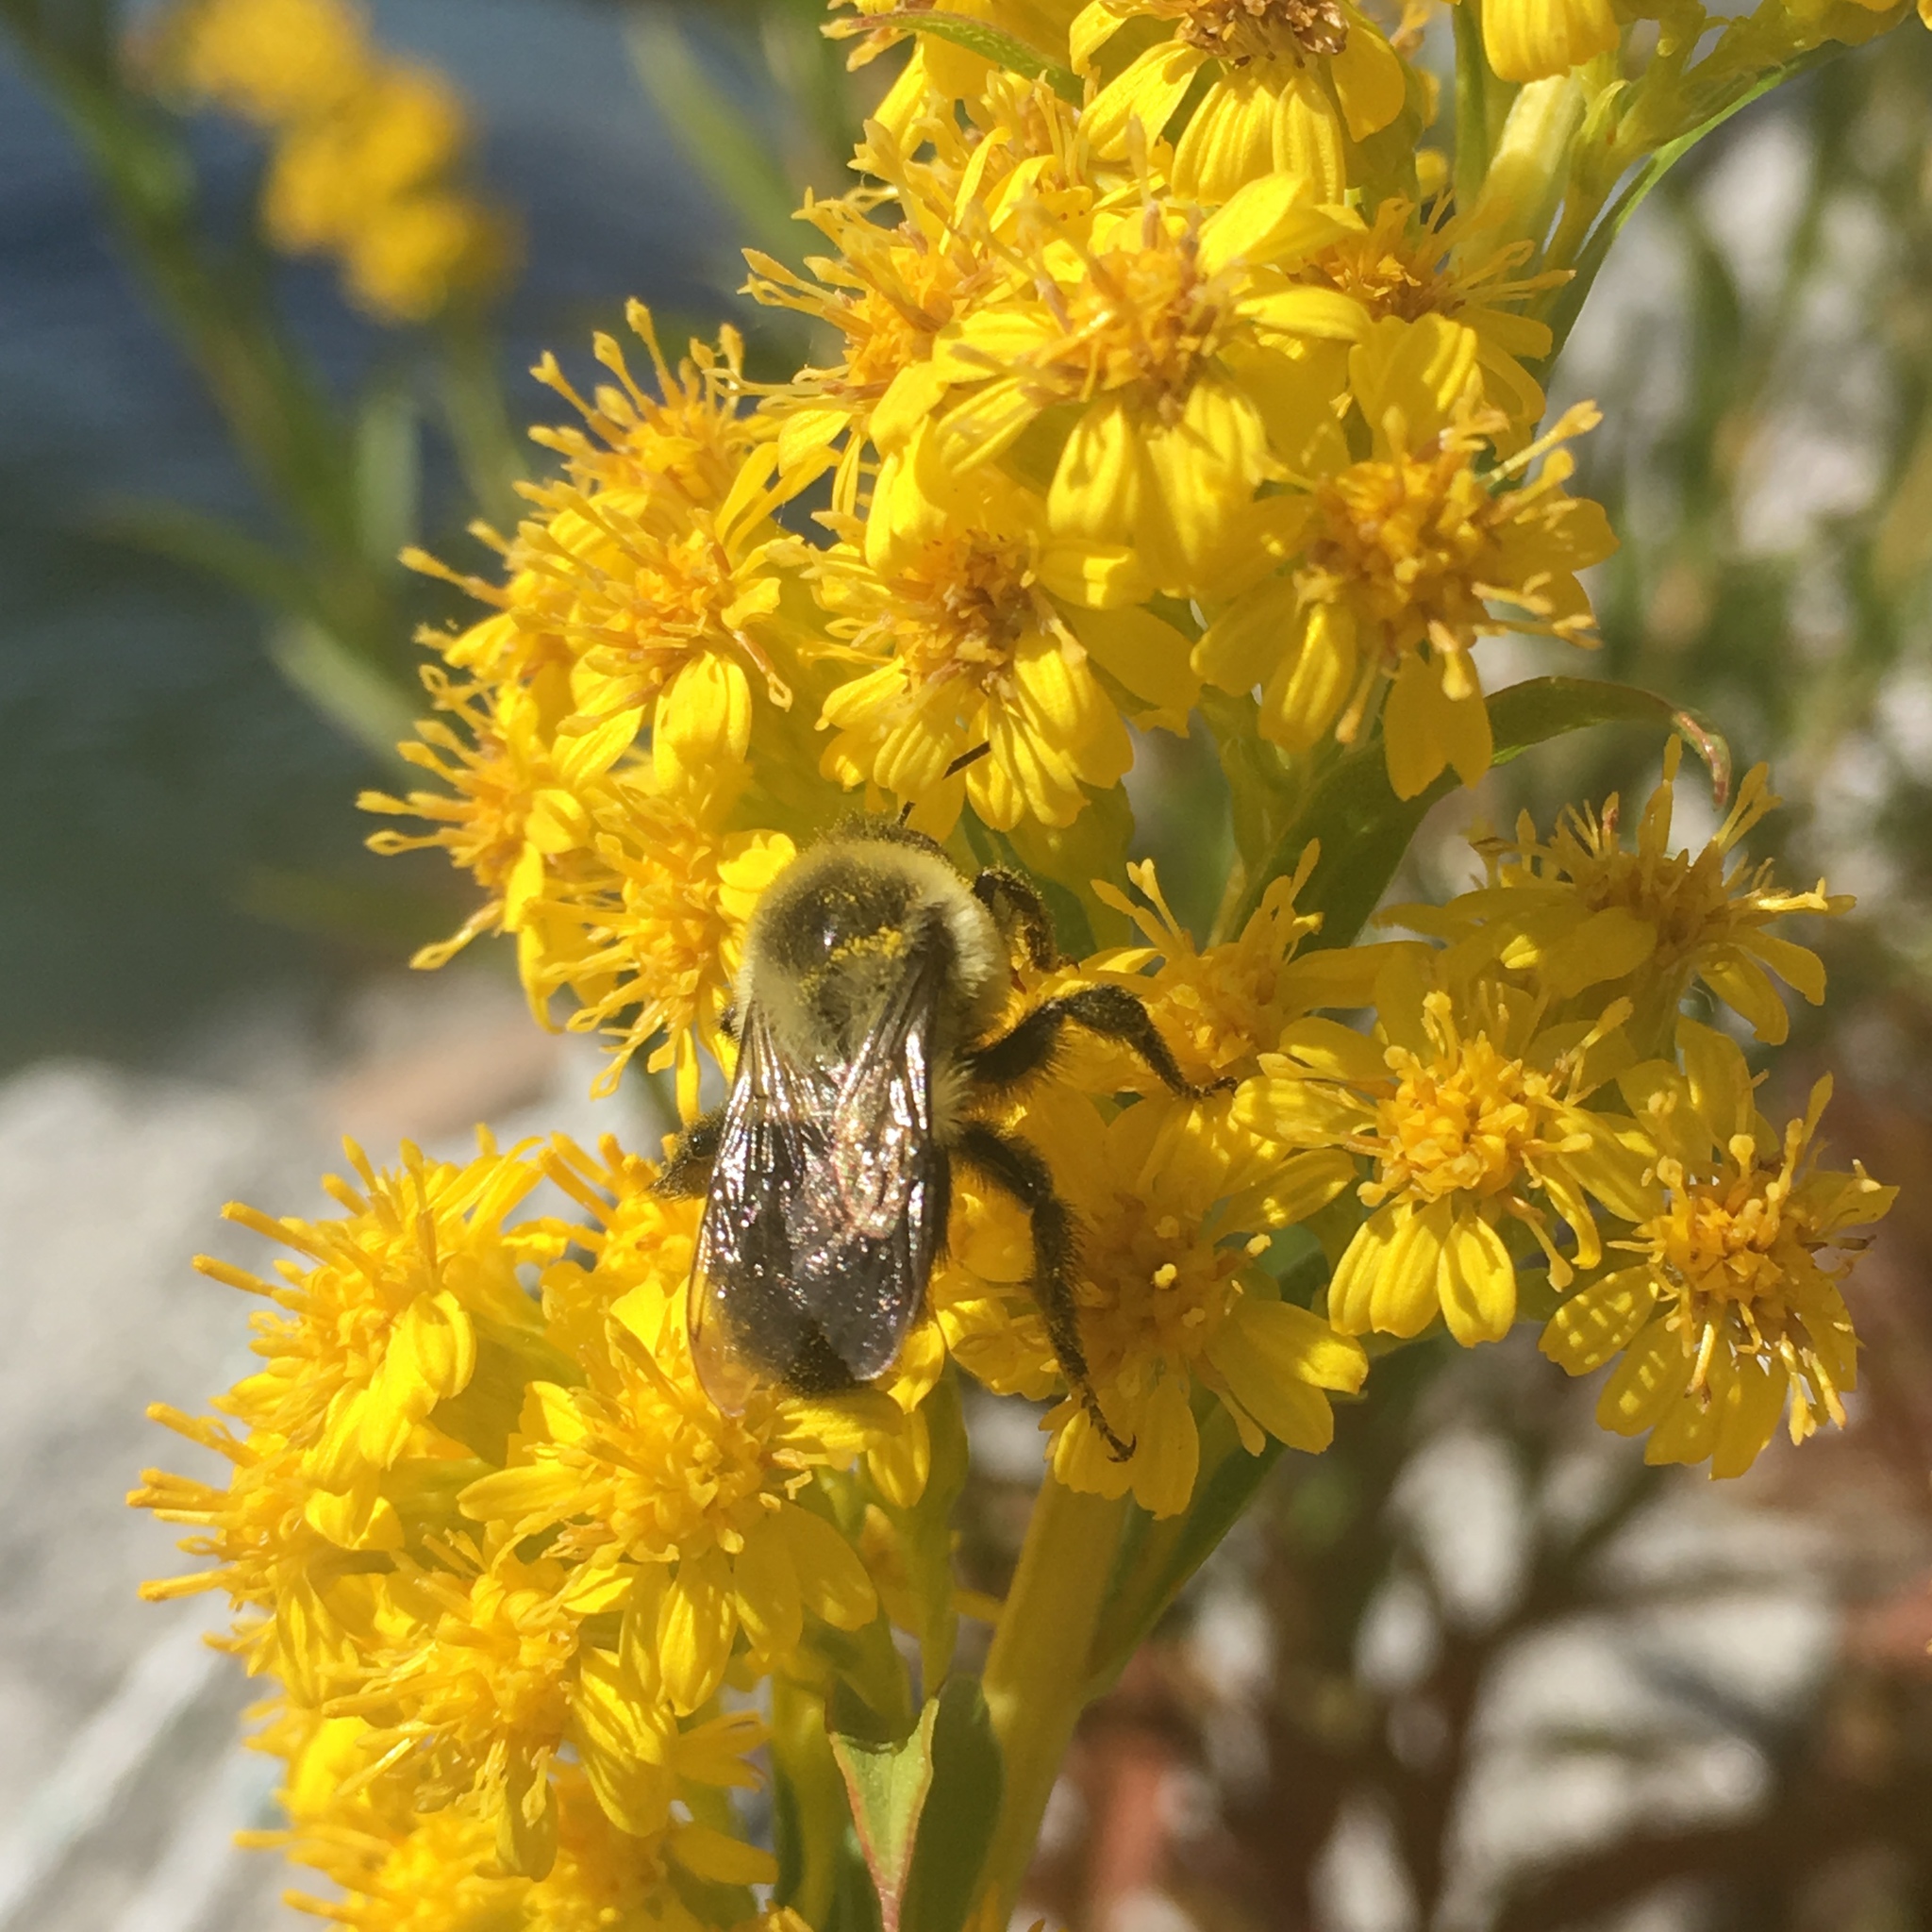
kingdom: Animalia
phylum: Arthropoda
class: Insecta
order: Hymenoptera
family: Apidae
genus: Bombus
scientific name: Bombus impatiens
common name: Common eastern bumble bee
